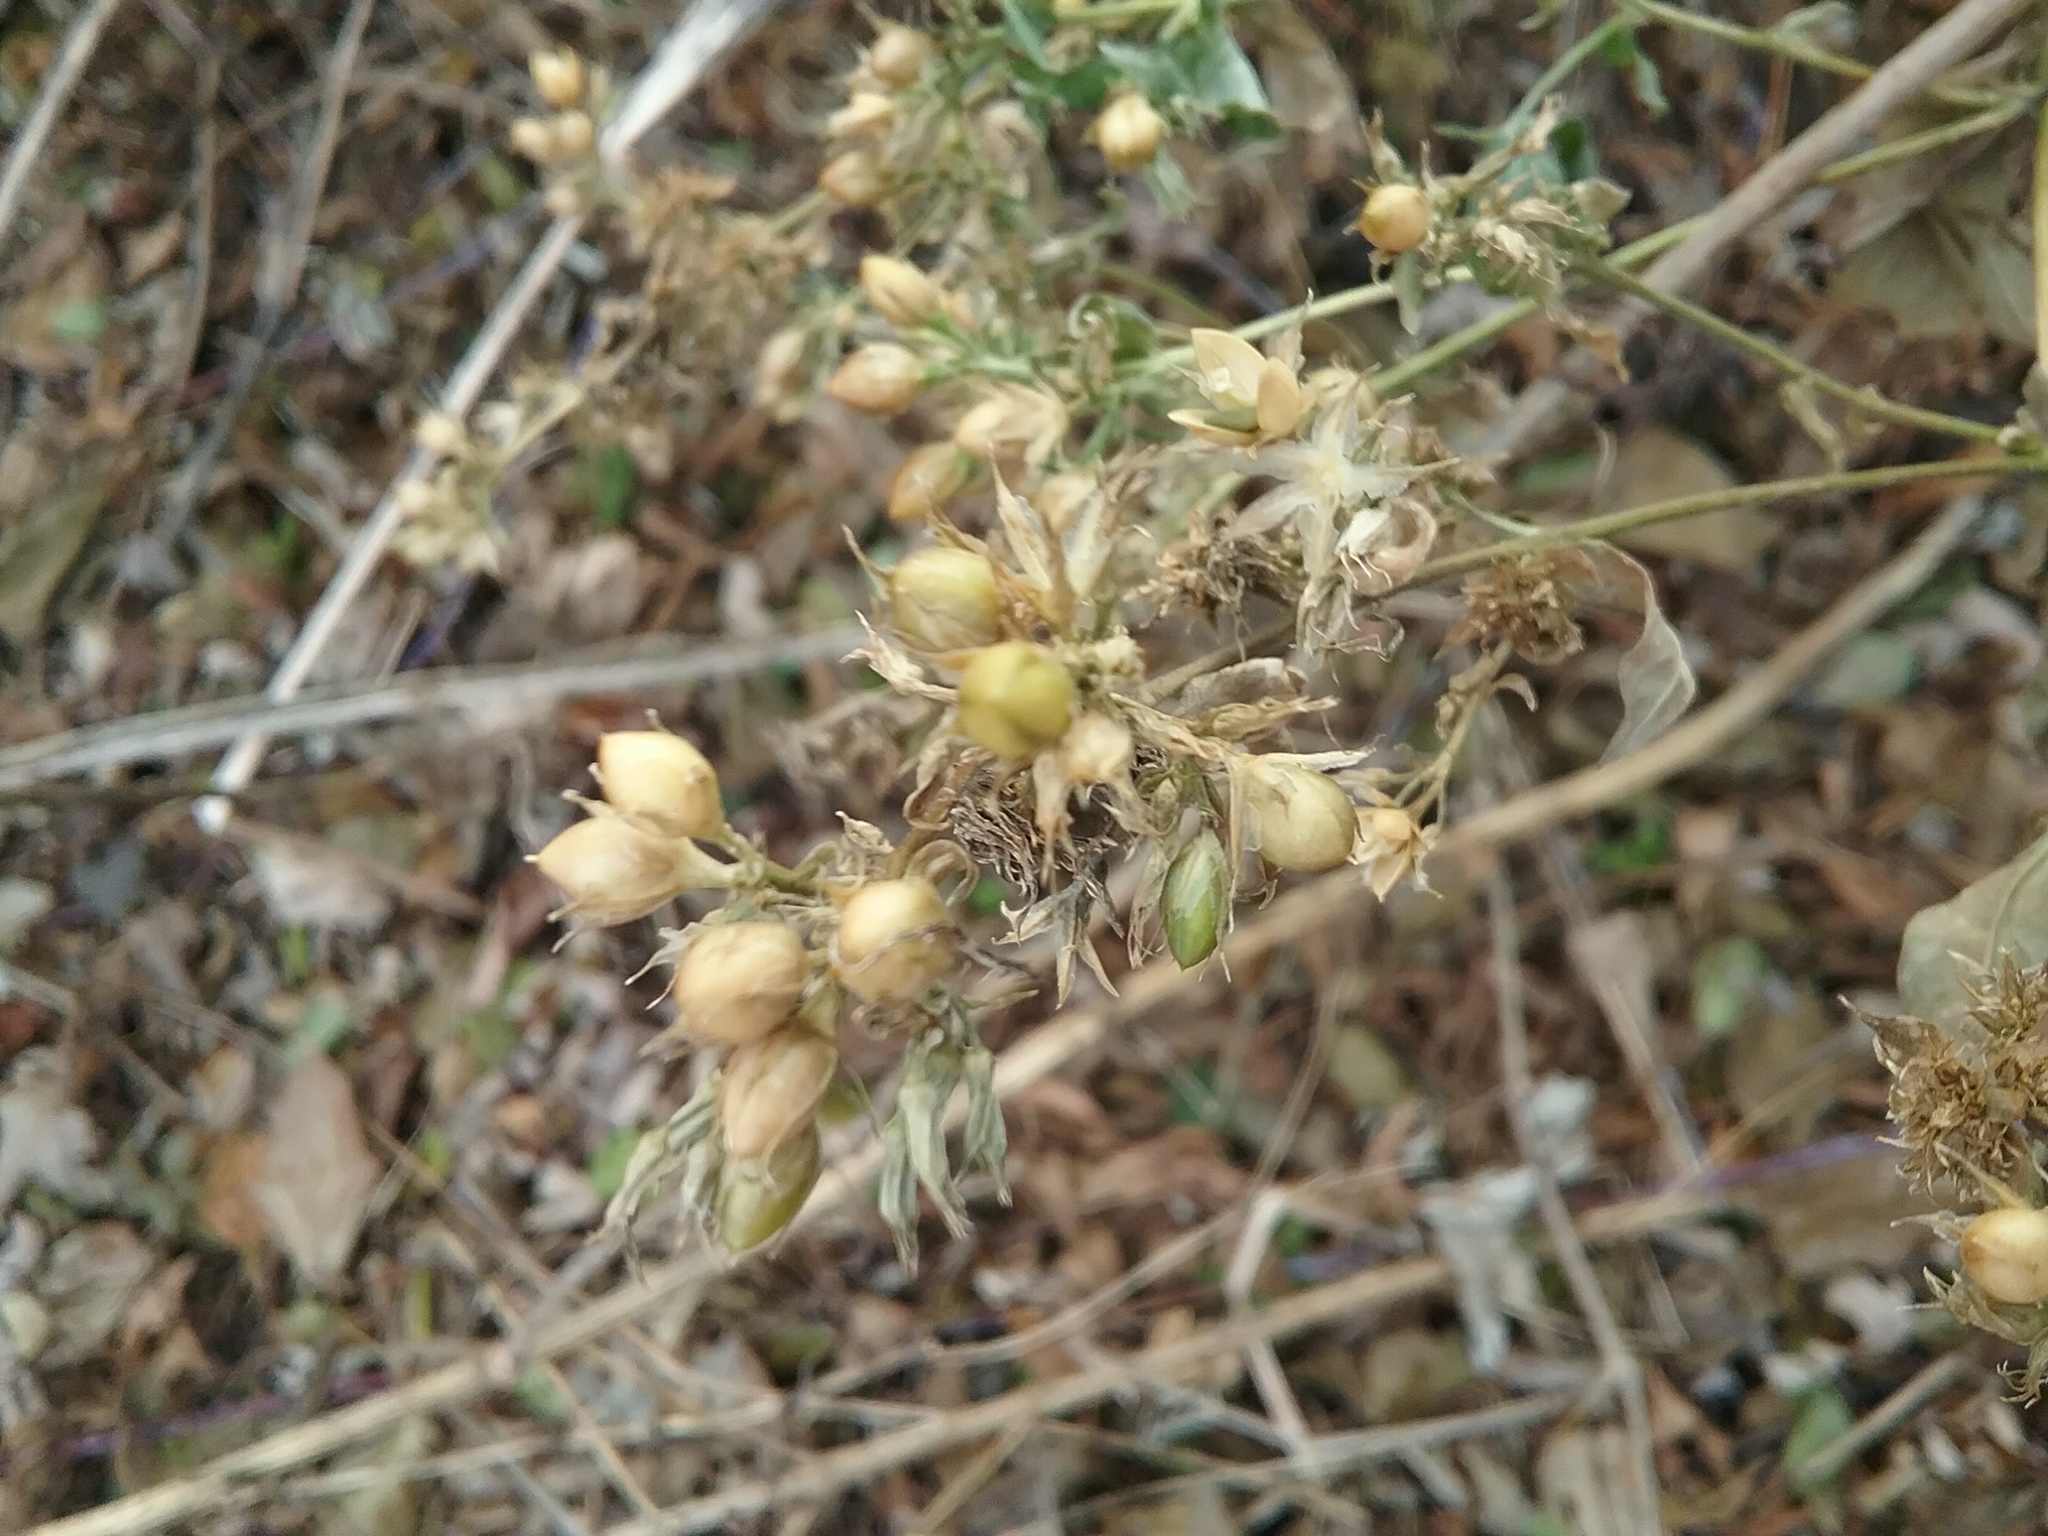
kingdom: Plantae
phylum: Tracheophyta
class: Magnoliopsida
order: Ericales
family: Polemoniaceae
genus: Phlox
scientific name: Phlox paniculata
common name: Fall phlox
